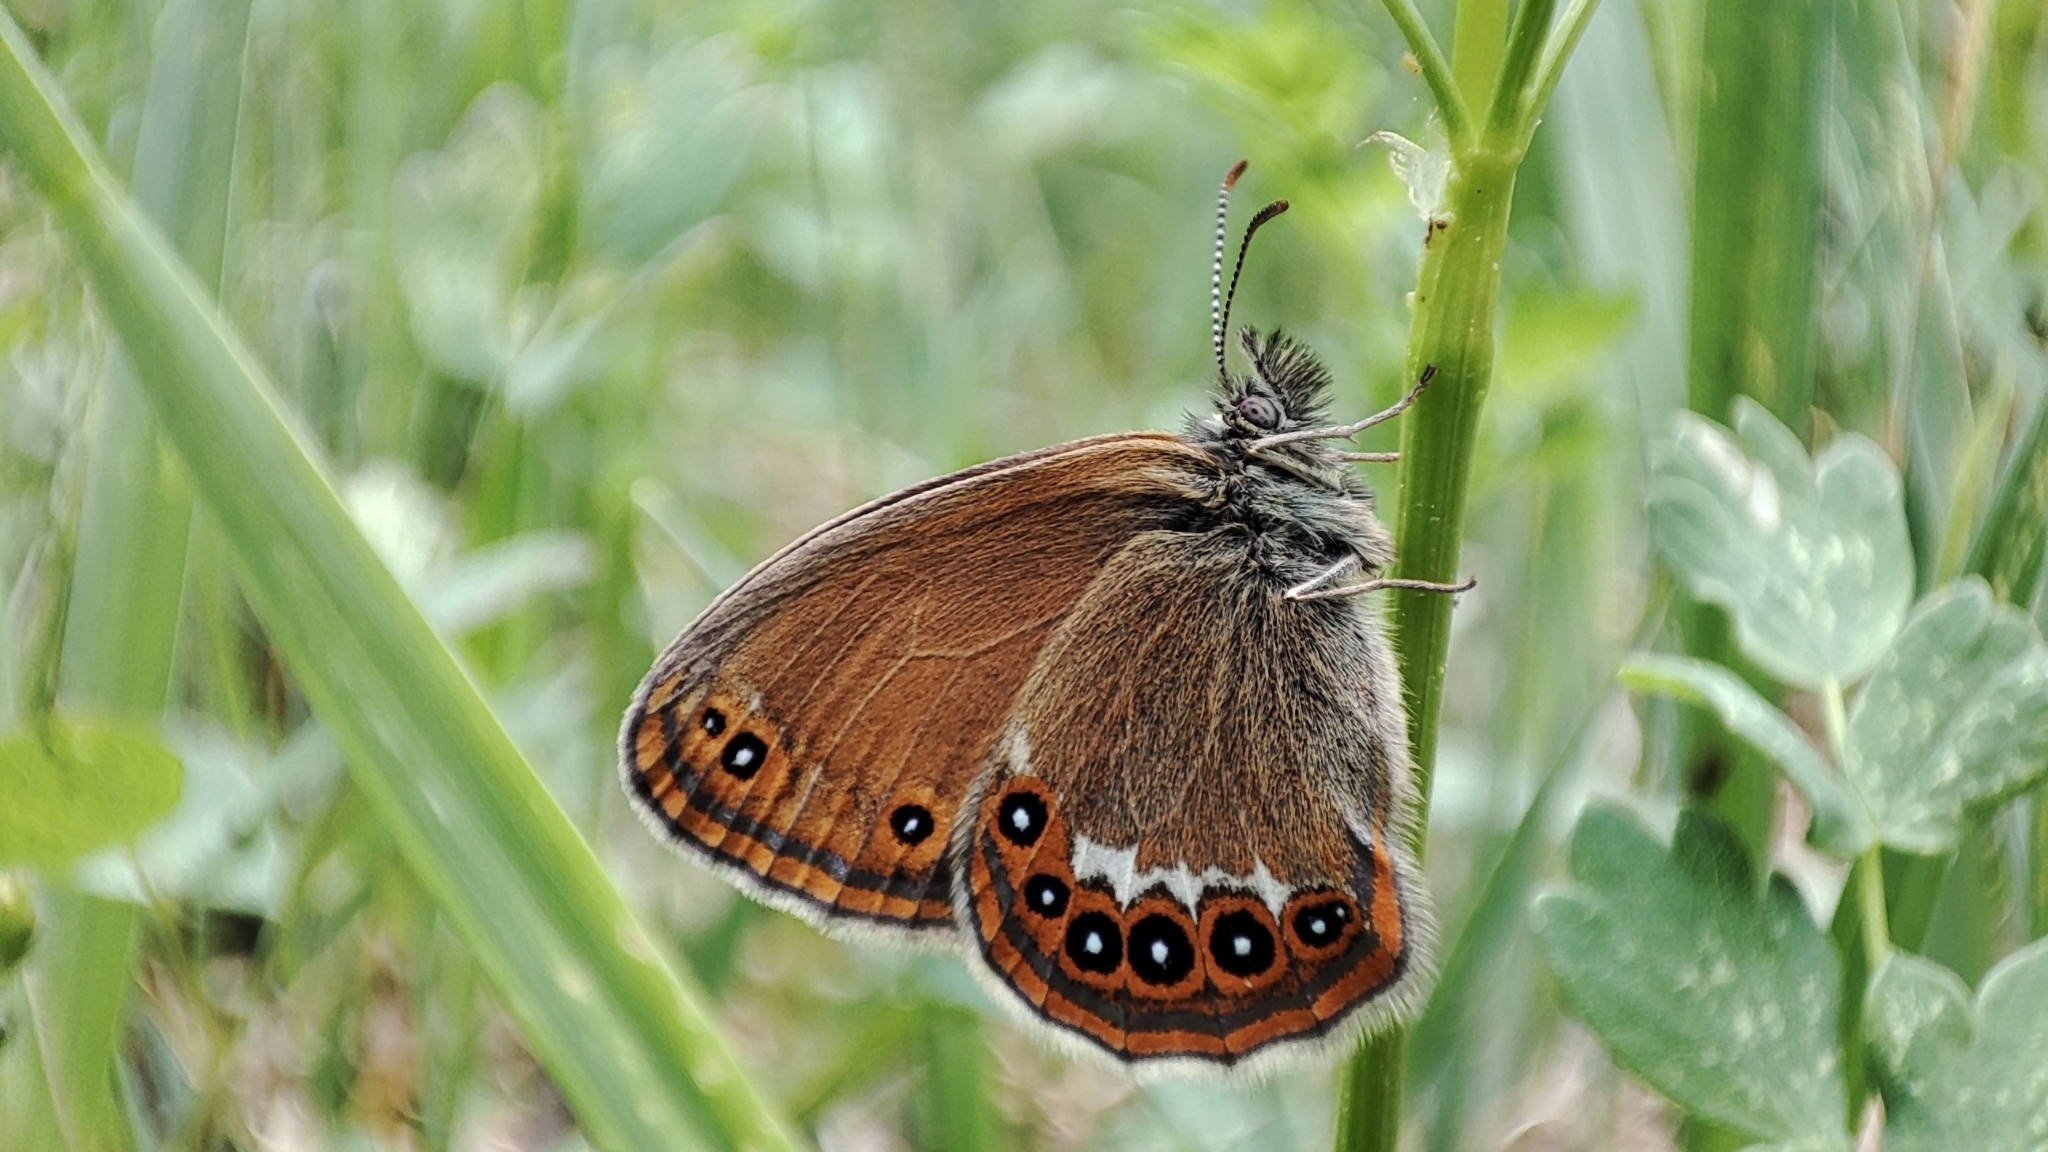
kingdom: Animalia
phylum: Arthropoda
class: Insecta
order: Lepidoptera
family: Nymphalidae
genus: Coenonympha
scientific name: Coenonympha hero
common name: Scarce heath
